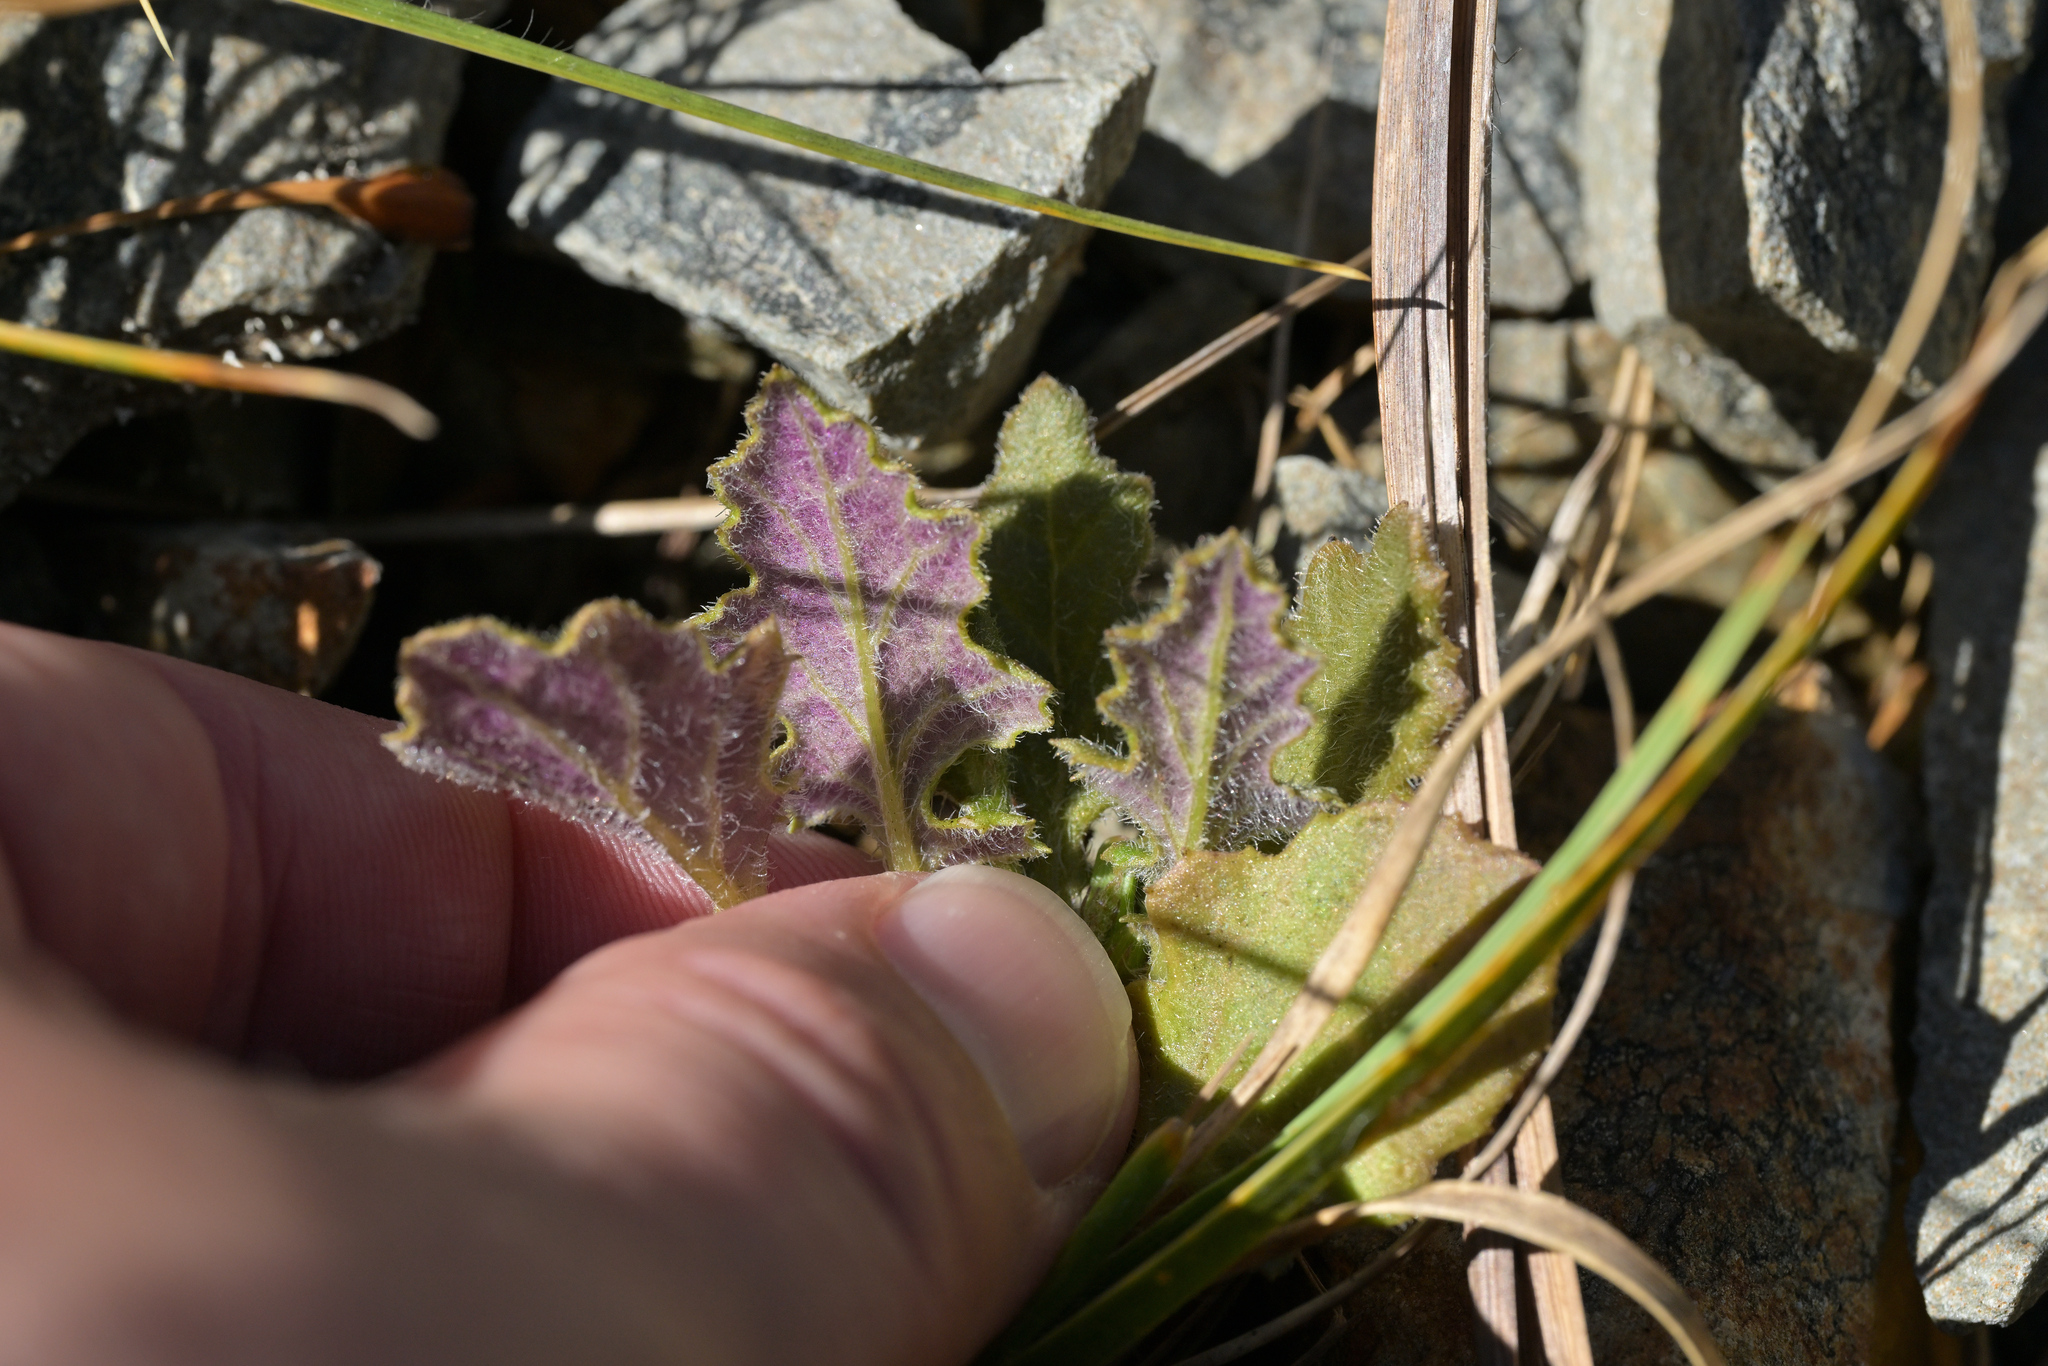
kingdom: Plantae
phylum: Tracheophyta
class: Magnoliopsida
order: Asterales
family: Asteraceae
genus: Senecio
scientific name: Senecio wairauensis
